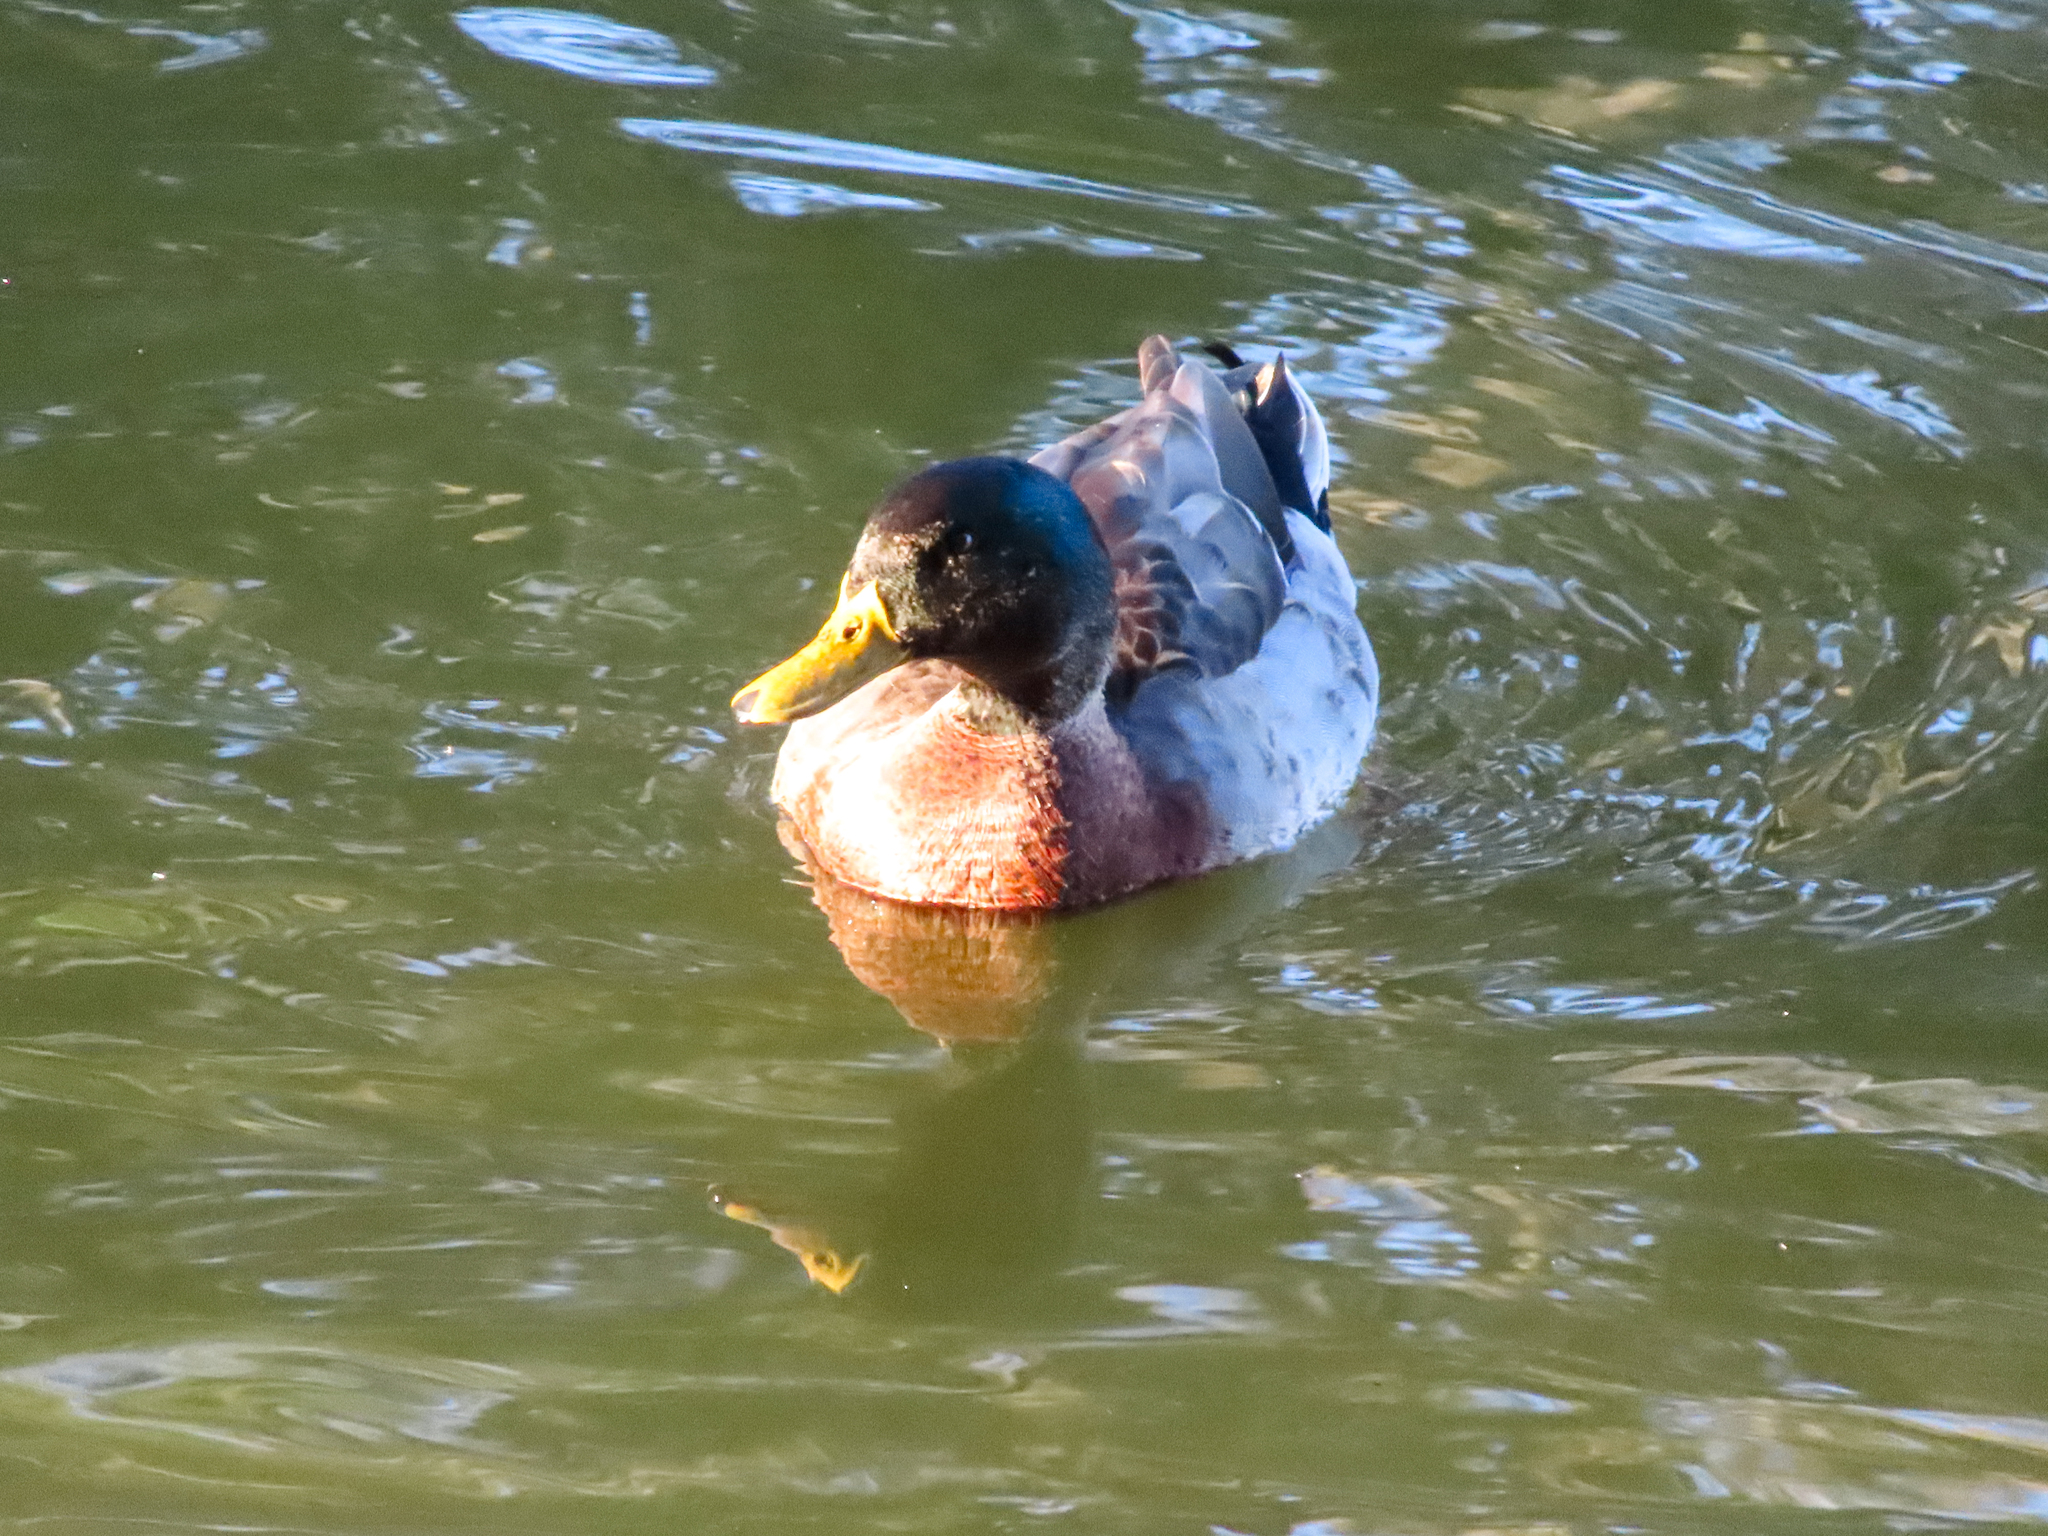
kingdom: Animalia
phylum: Chordata
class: Aves
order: Anseriformes
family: Anatidae
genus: Anas
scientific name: Anas platyrhynchos
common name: Mallard
